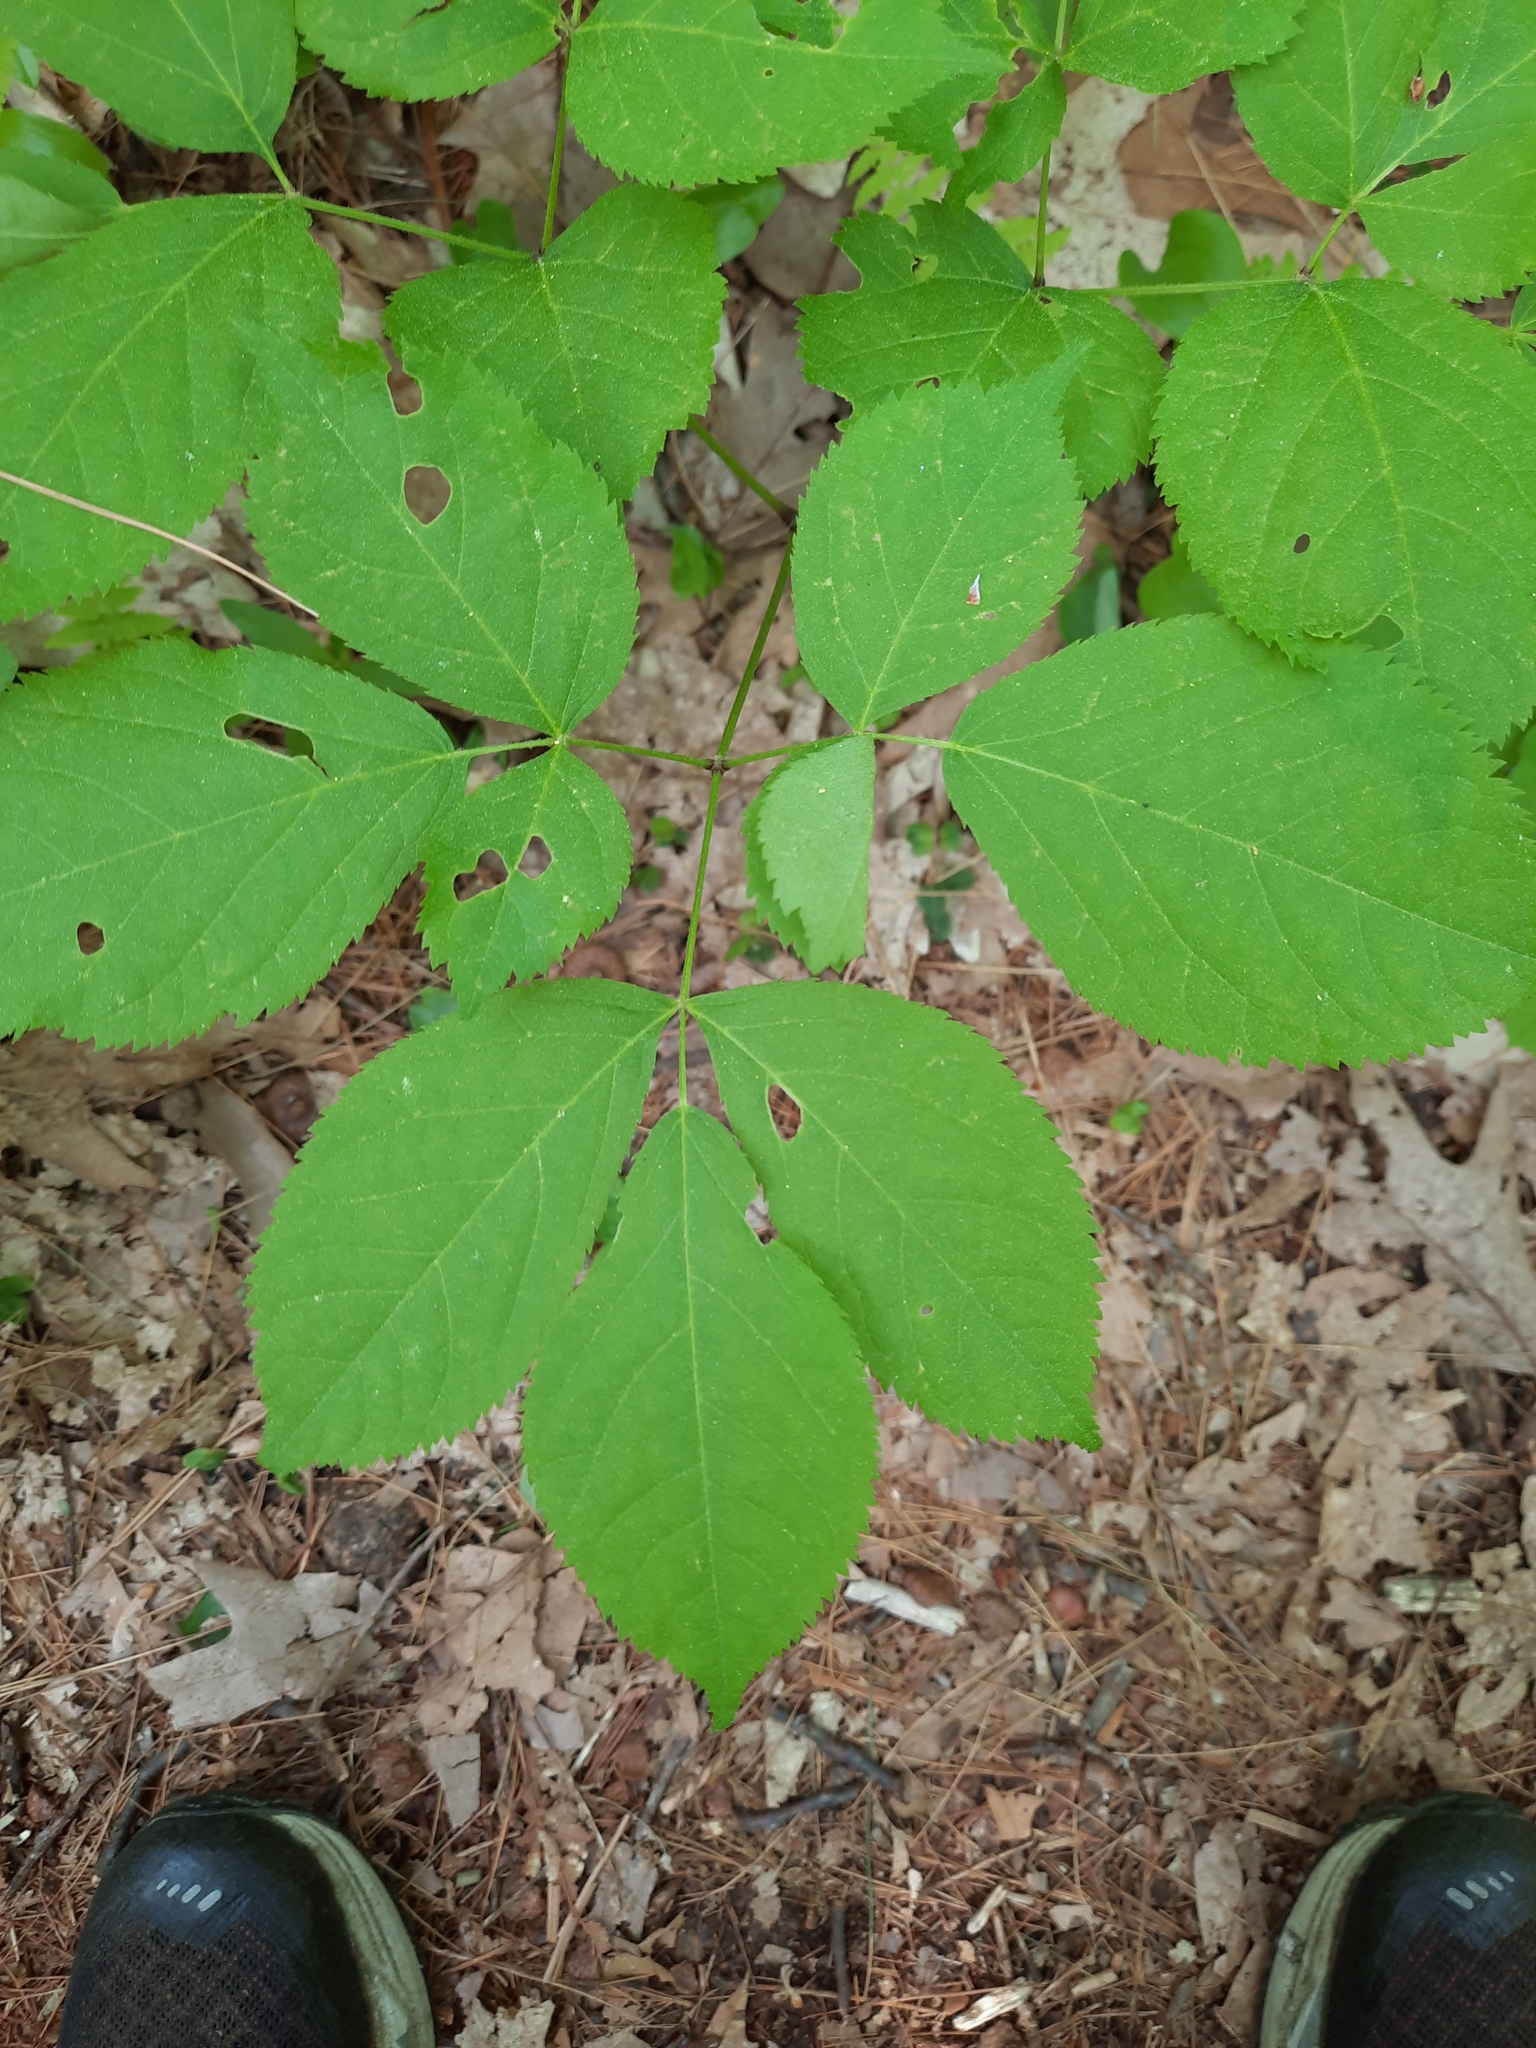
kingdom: Plantae
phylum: Tracheophyta
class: Magnoliopsida
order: Apiales
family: Araliaceae
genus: Aralia
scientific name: Aralia nudicaulis
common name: Wild sarsaparilla
